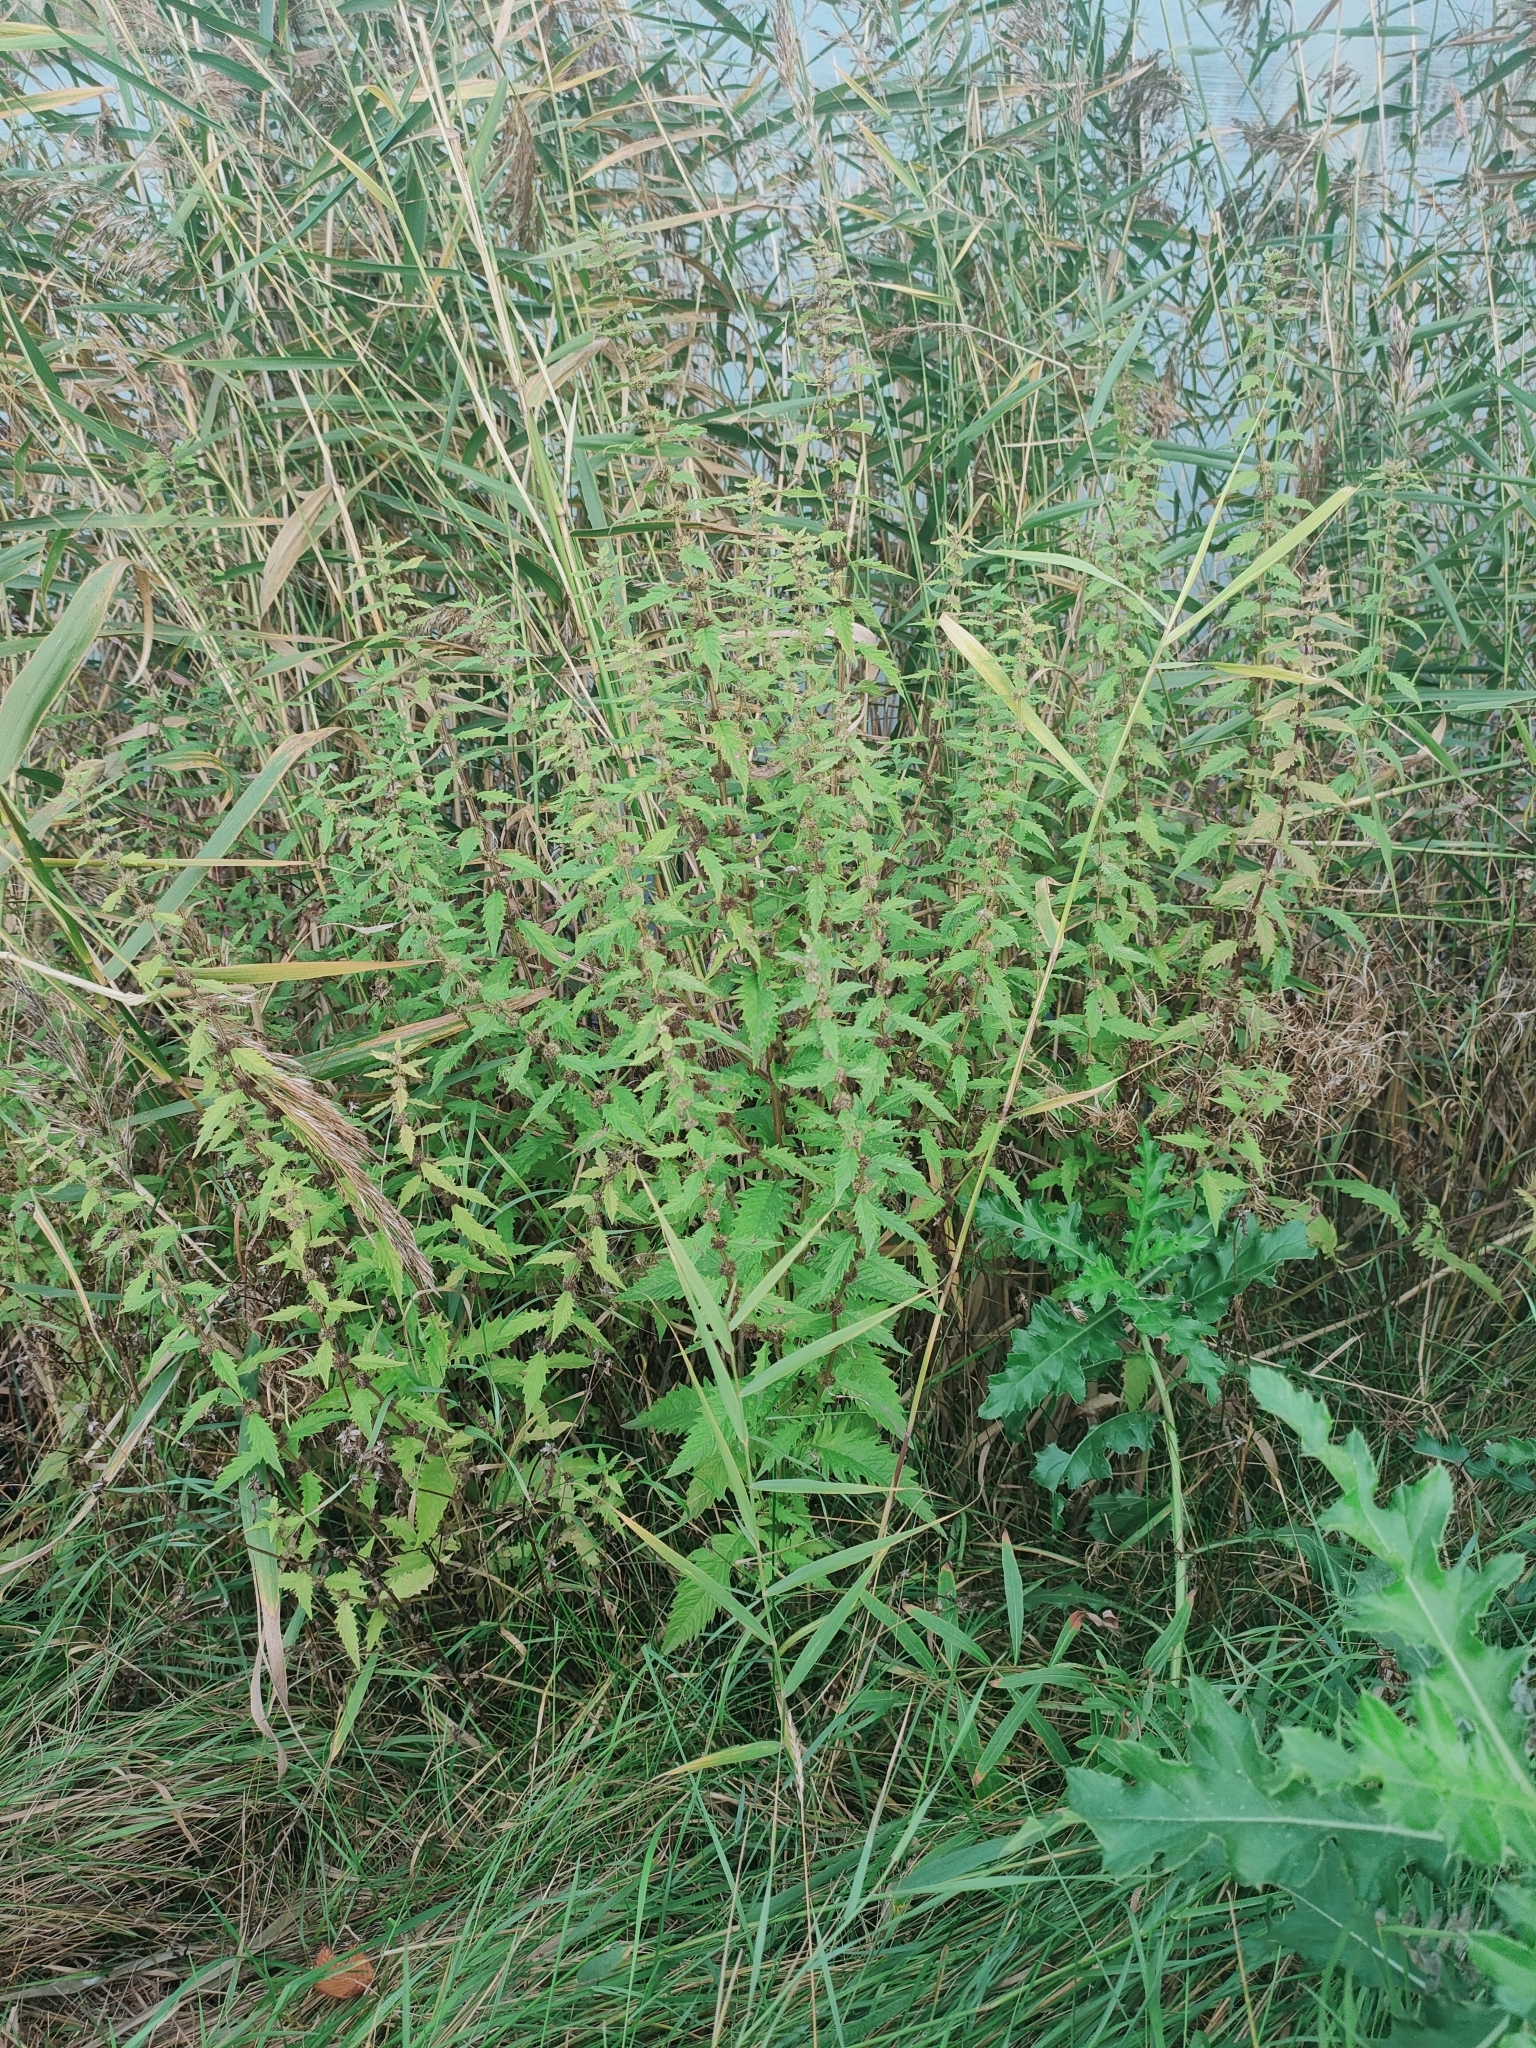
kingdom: Plantae
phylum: Tracheophyta
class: Magnoliopsida
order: Lamiales
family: Lamiaceae
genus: Lycopus
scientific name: Lycopus europaeus
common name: European bugleweed
